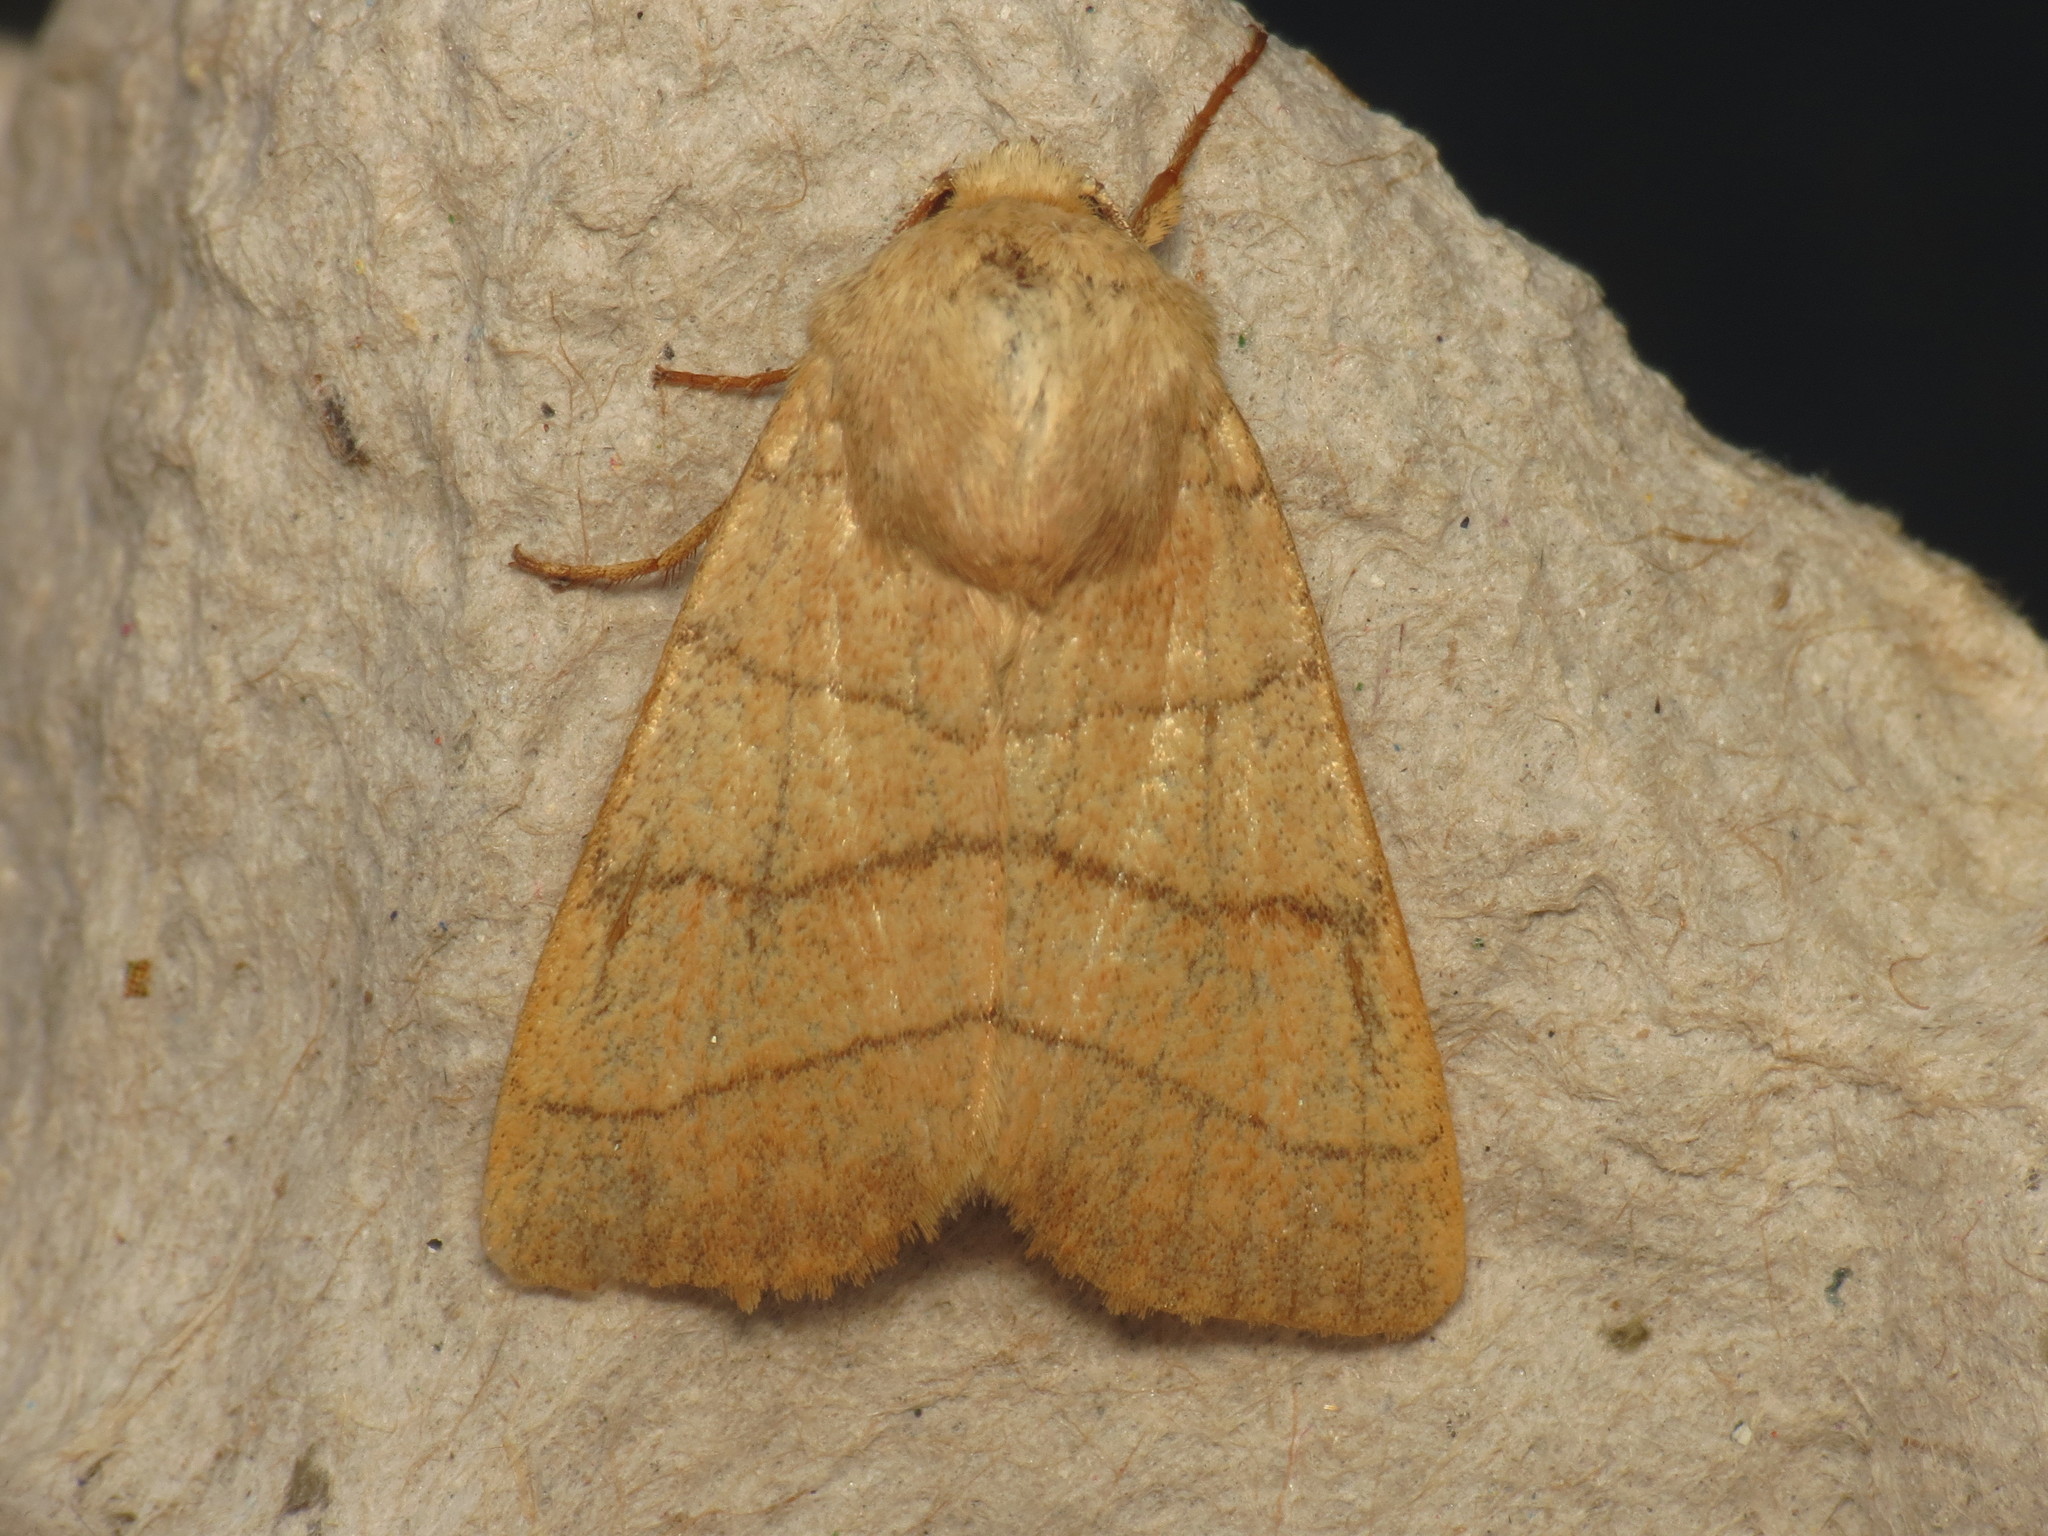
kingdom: Animalia
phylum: Arthropoda
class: Insecta
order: Lepidoptera
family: Noctuidae
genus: Charanyca
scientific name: Charanyca trigrammica
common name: Treble lines
